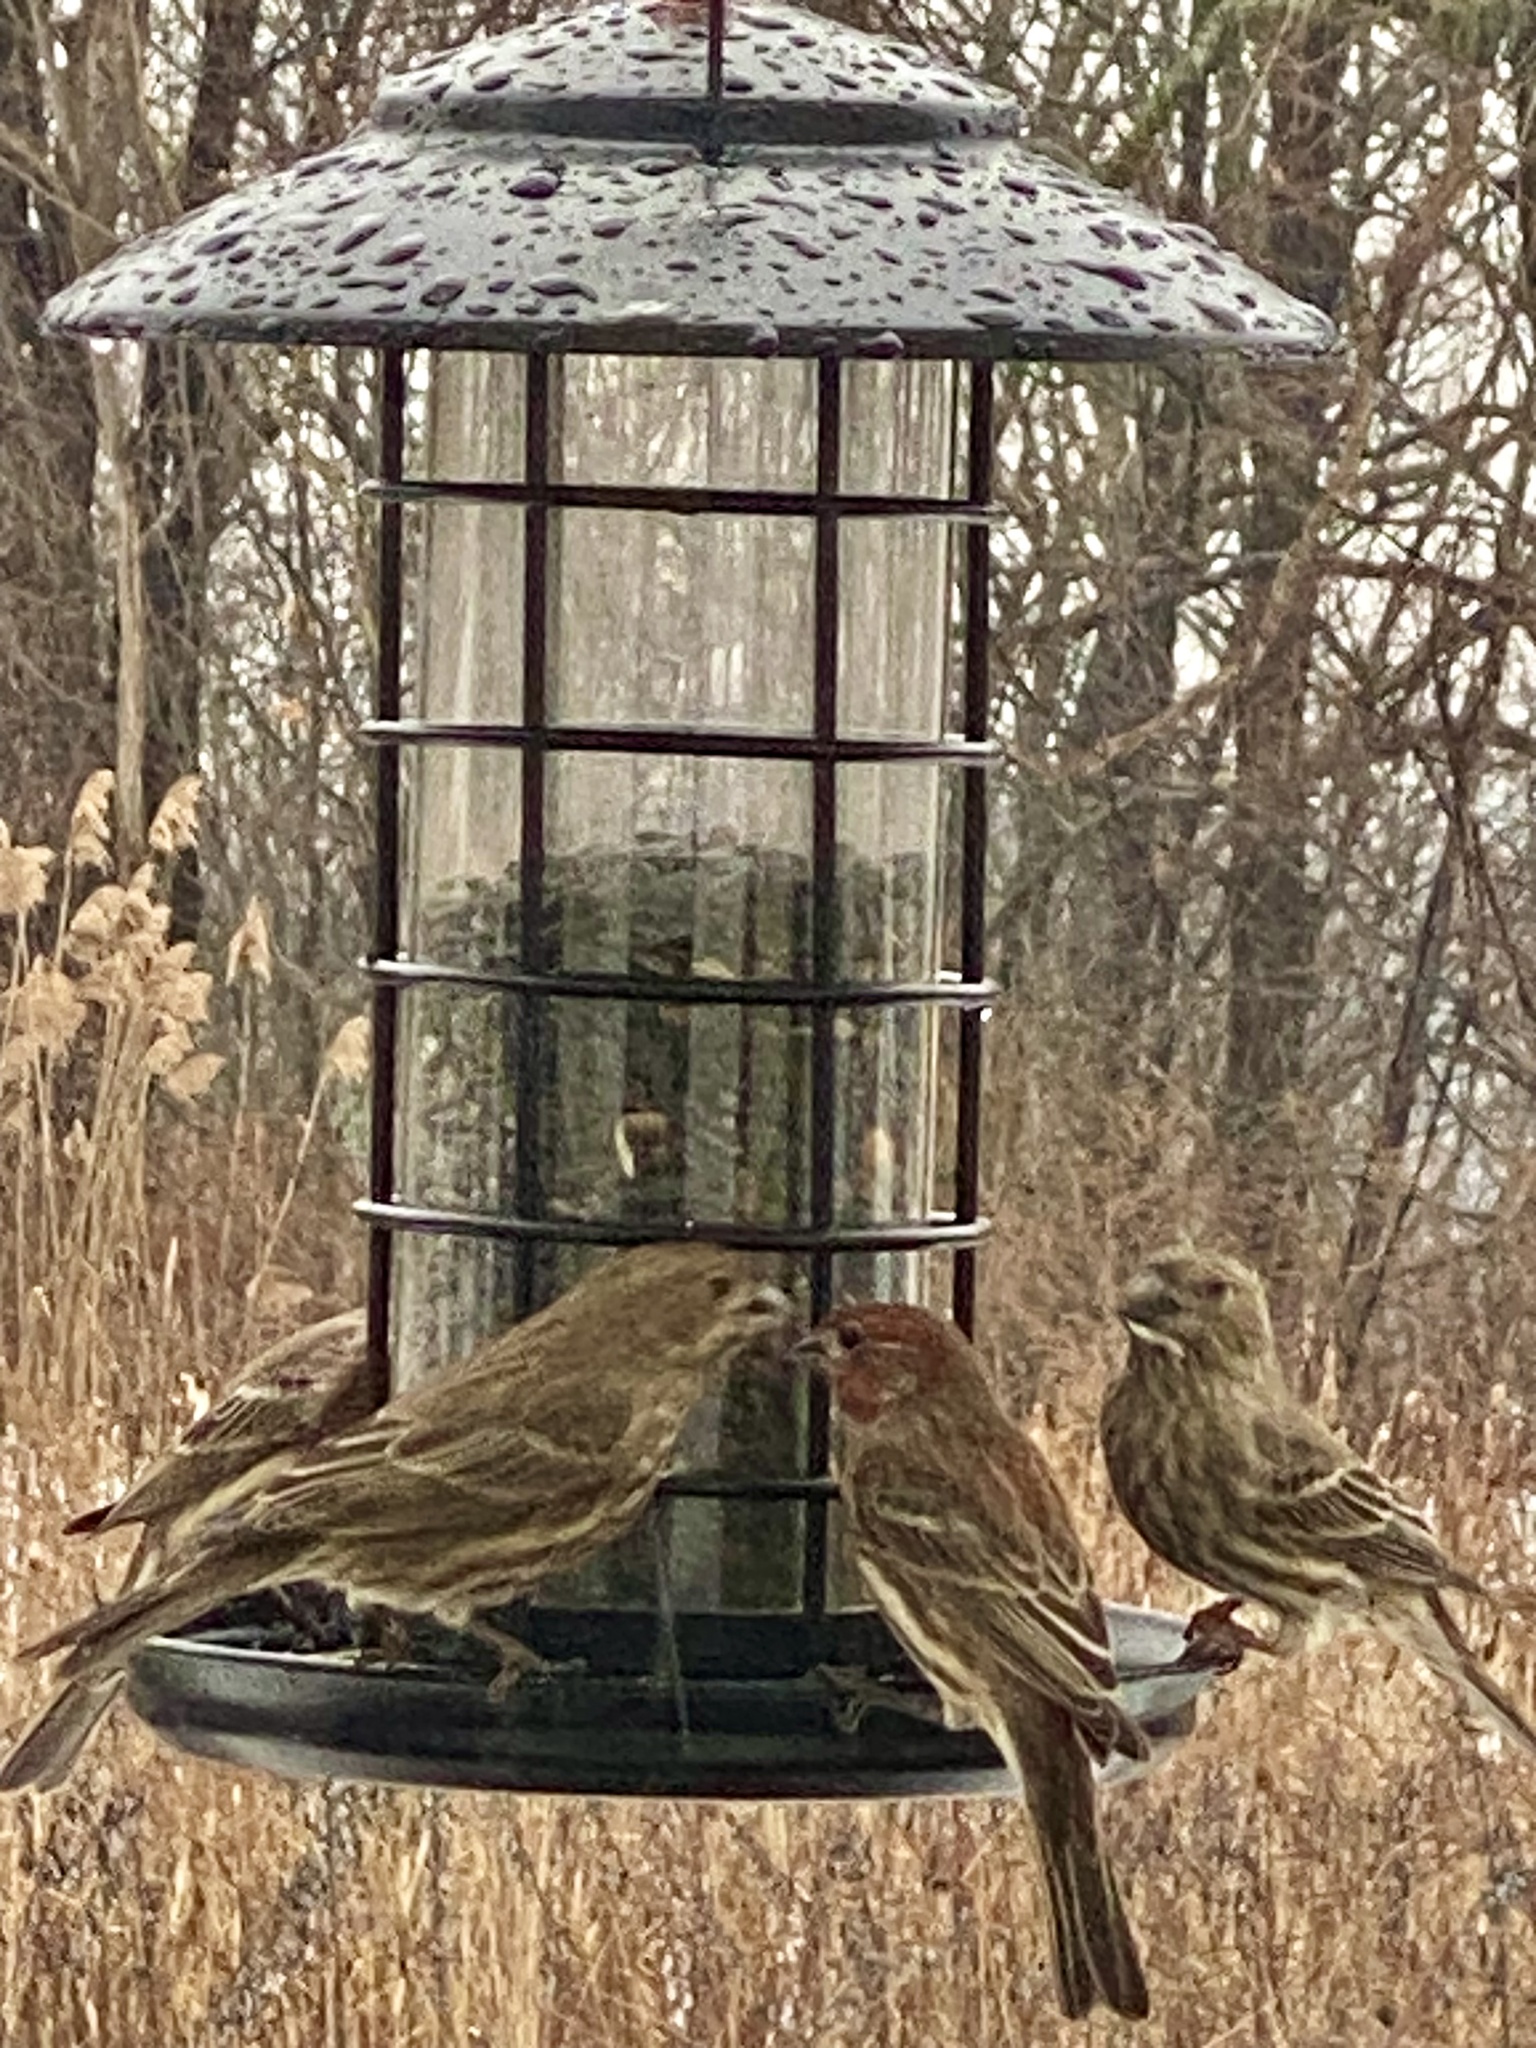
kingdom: Animalia
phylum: Chordata
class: Aves
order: Passeriformes
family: Fringillidae
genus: Haemorhous
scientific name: Haemorhous mexicanus
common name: House finch
